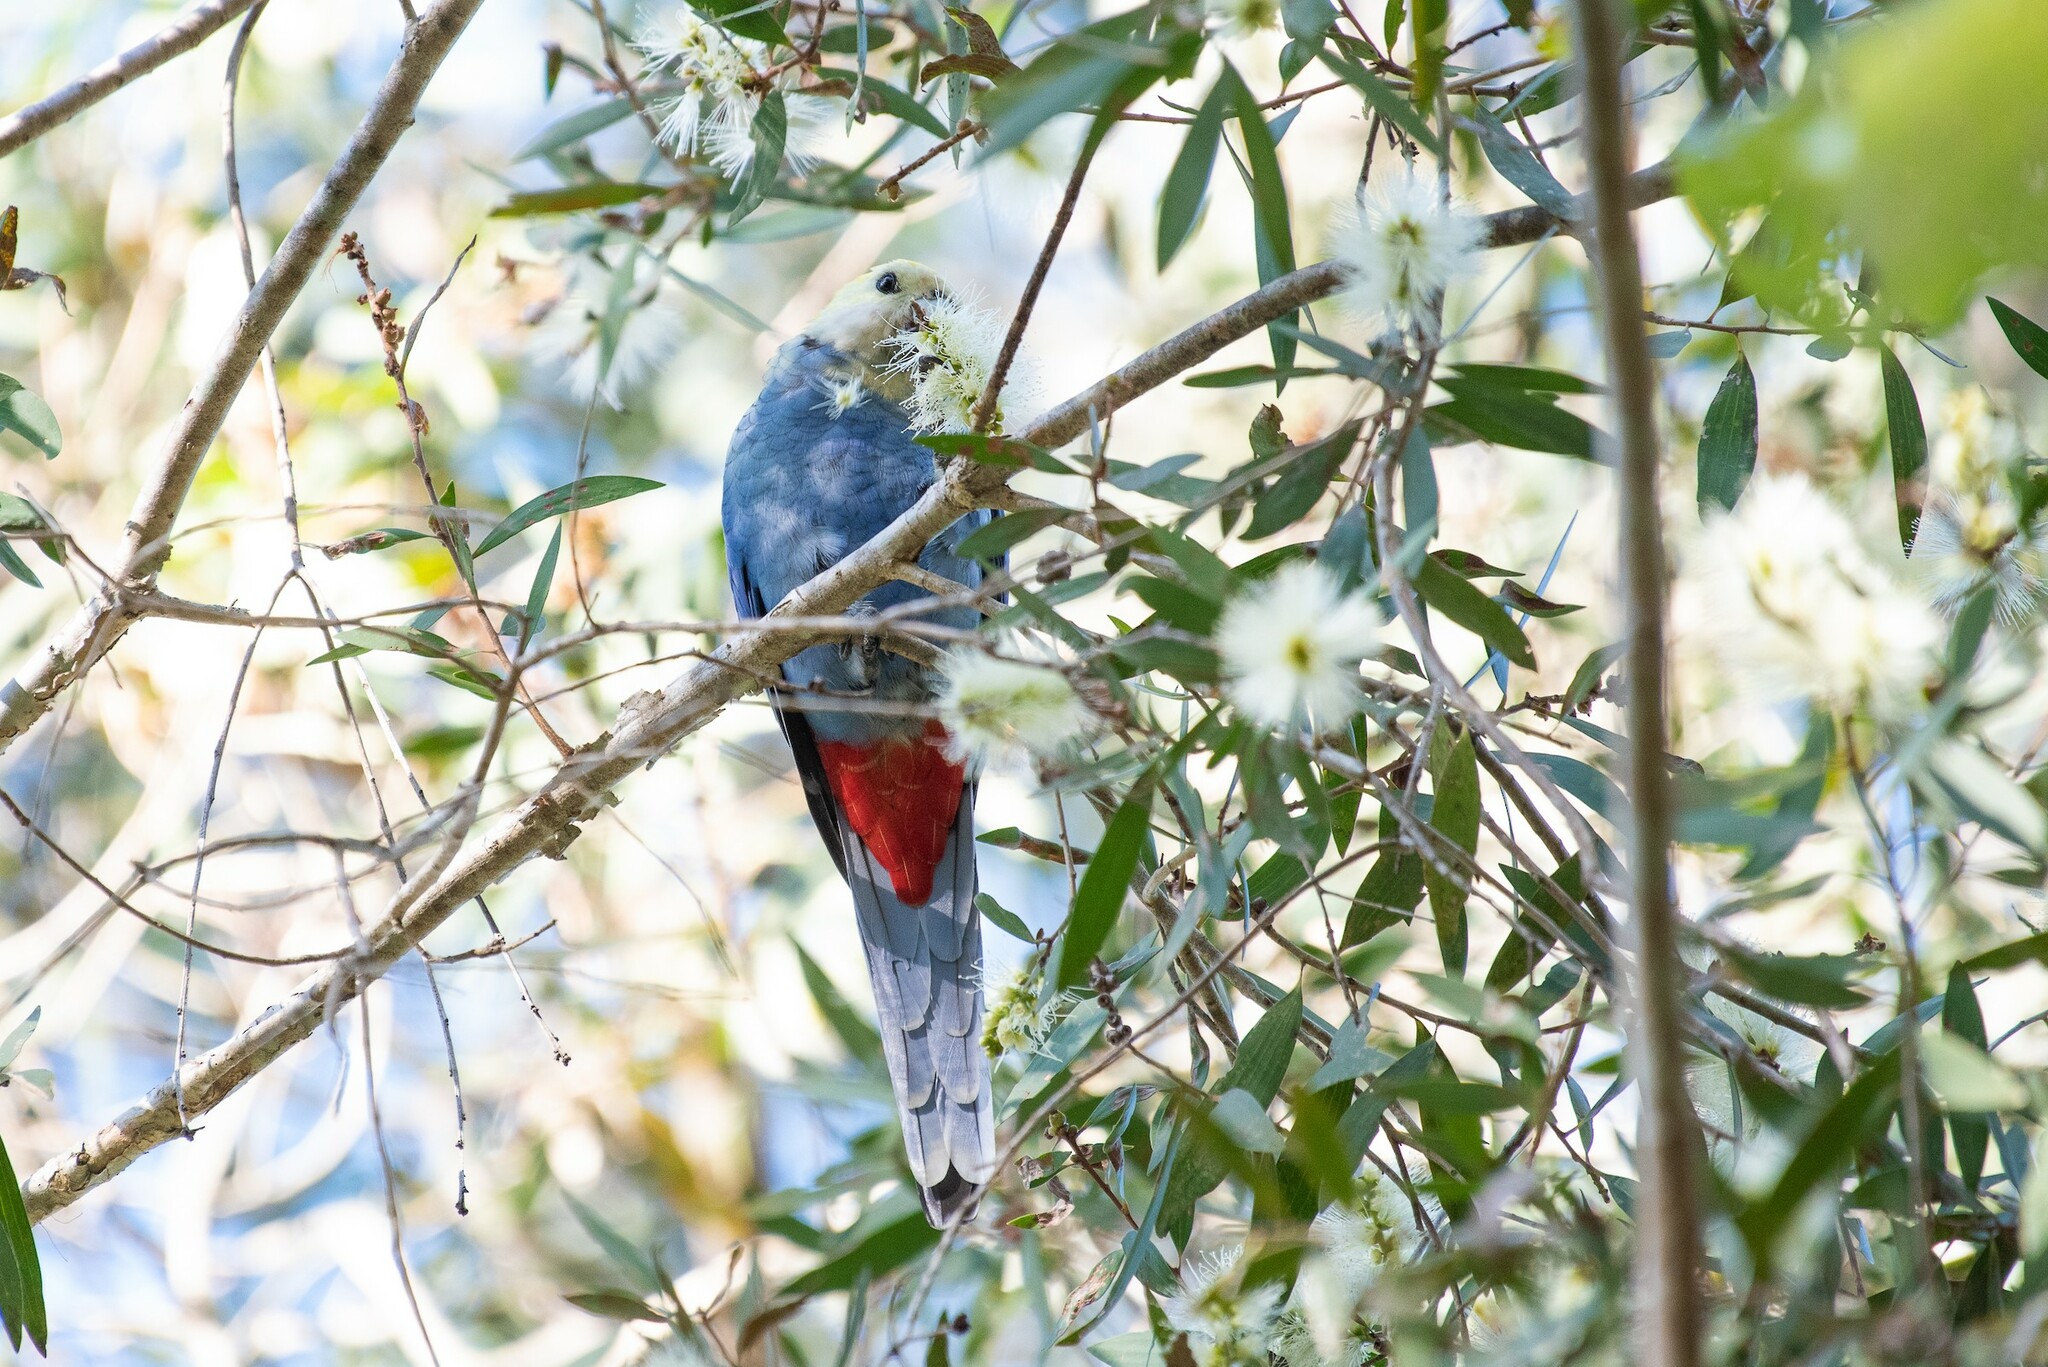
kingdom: Animalia
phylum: Chordata
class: Aves
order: Psittaciformes
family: Psittacidae
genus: Platycercus
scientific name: Platycercus adscitus
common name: Pale-headed rosella
